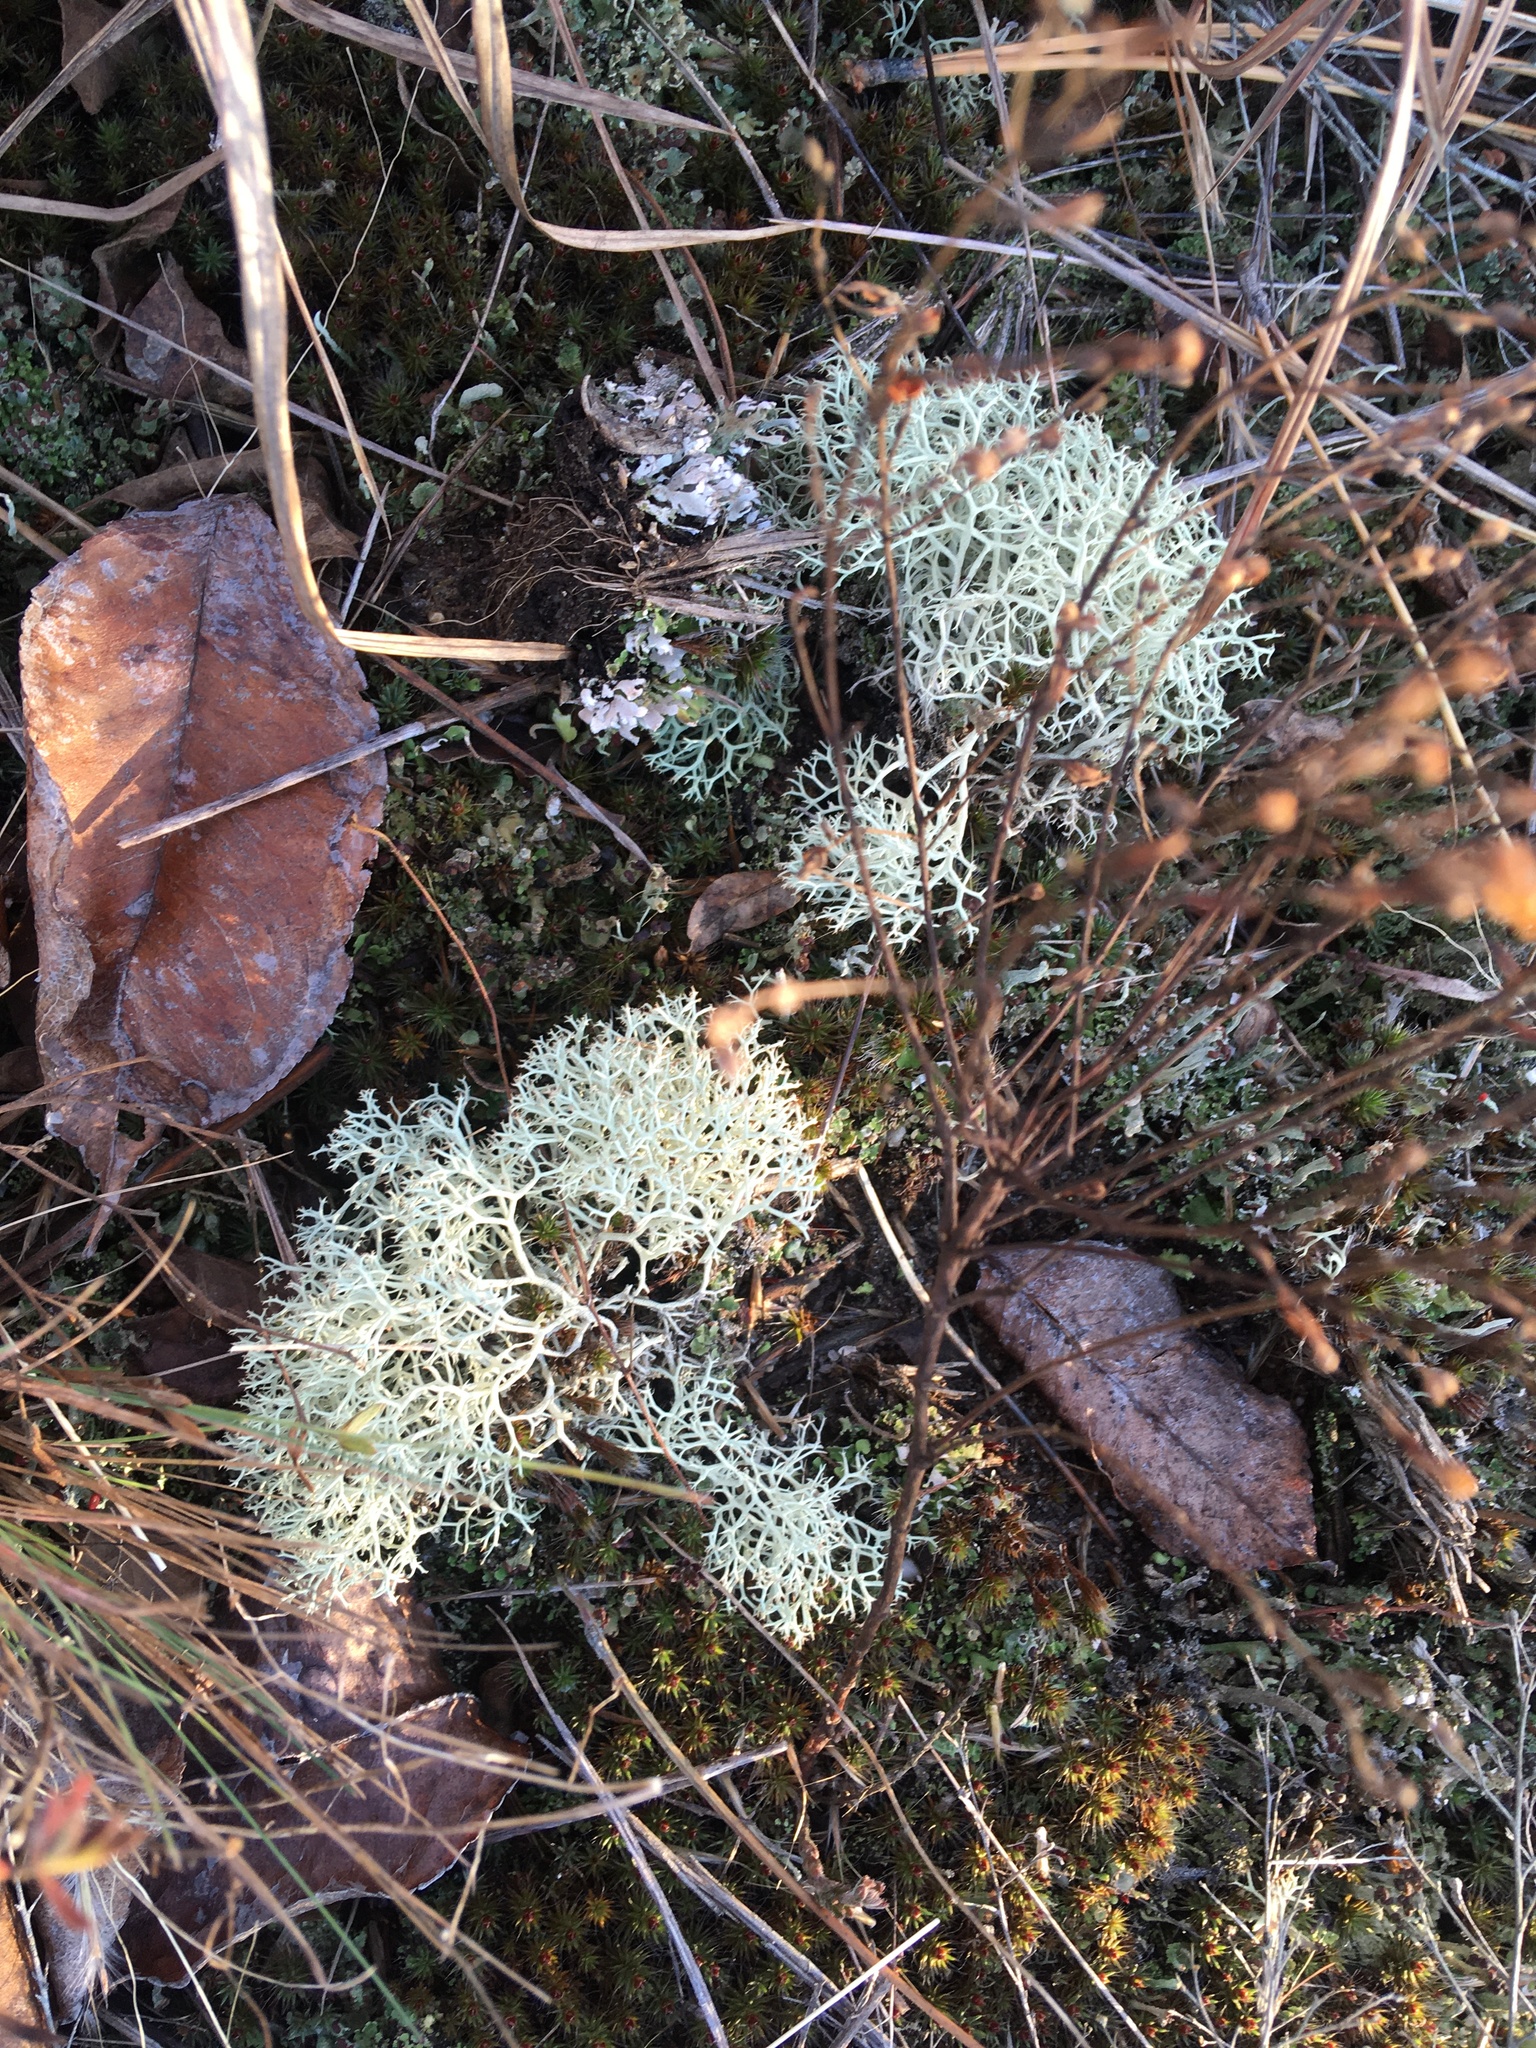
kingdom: Fungi
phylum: Ascomycota
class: Lecanoromycetes
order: Lecanorales
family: Cladoniaceae
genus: Cladonia
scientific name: Cladonia subtenuis
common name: Dixie reindeer lichen
